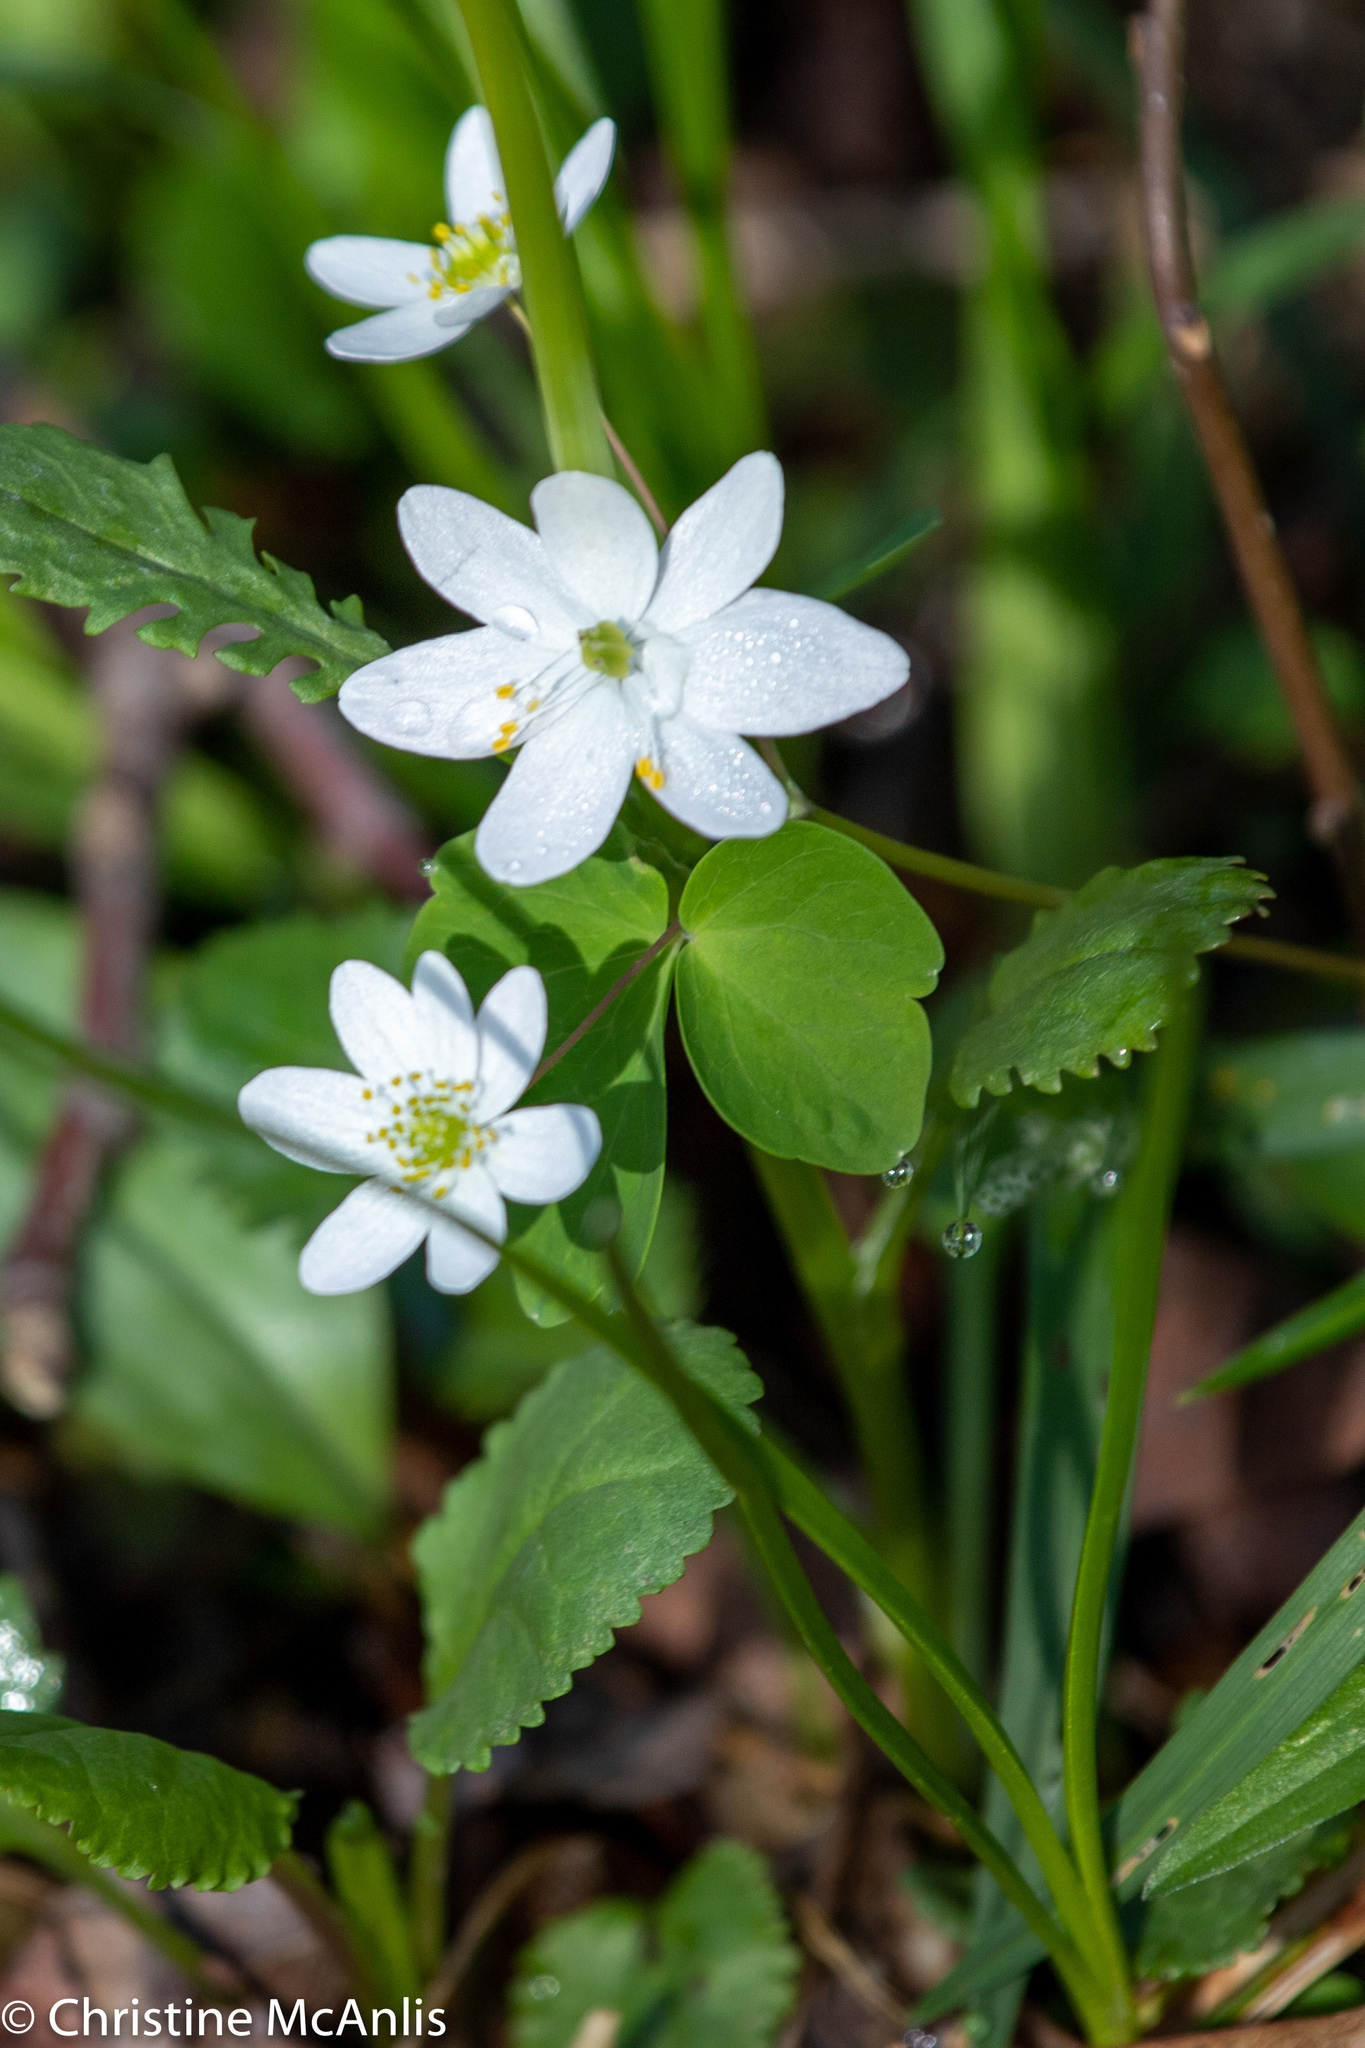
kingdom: Plantae
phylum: Tracheophyta
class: Magnoliopsida
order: Ranunculales
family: Ranunculaceae
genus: Thalictrum
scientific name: Thalictrum thalictroides
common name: Rue-anemone
